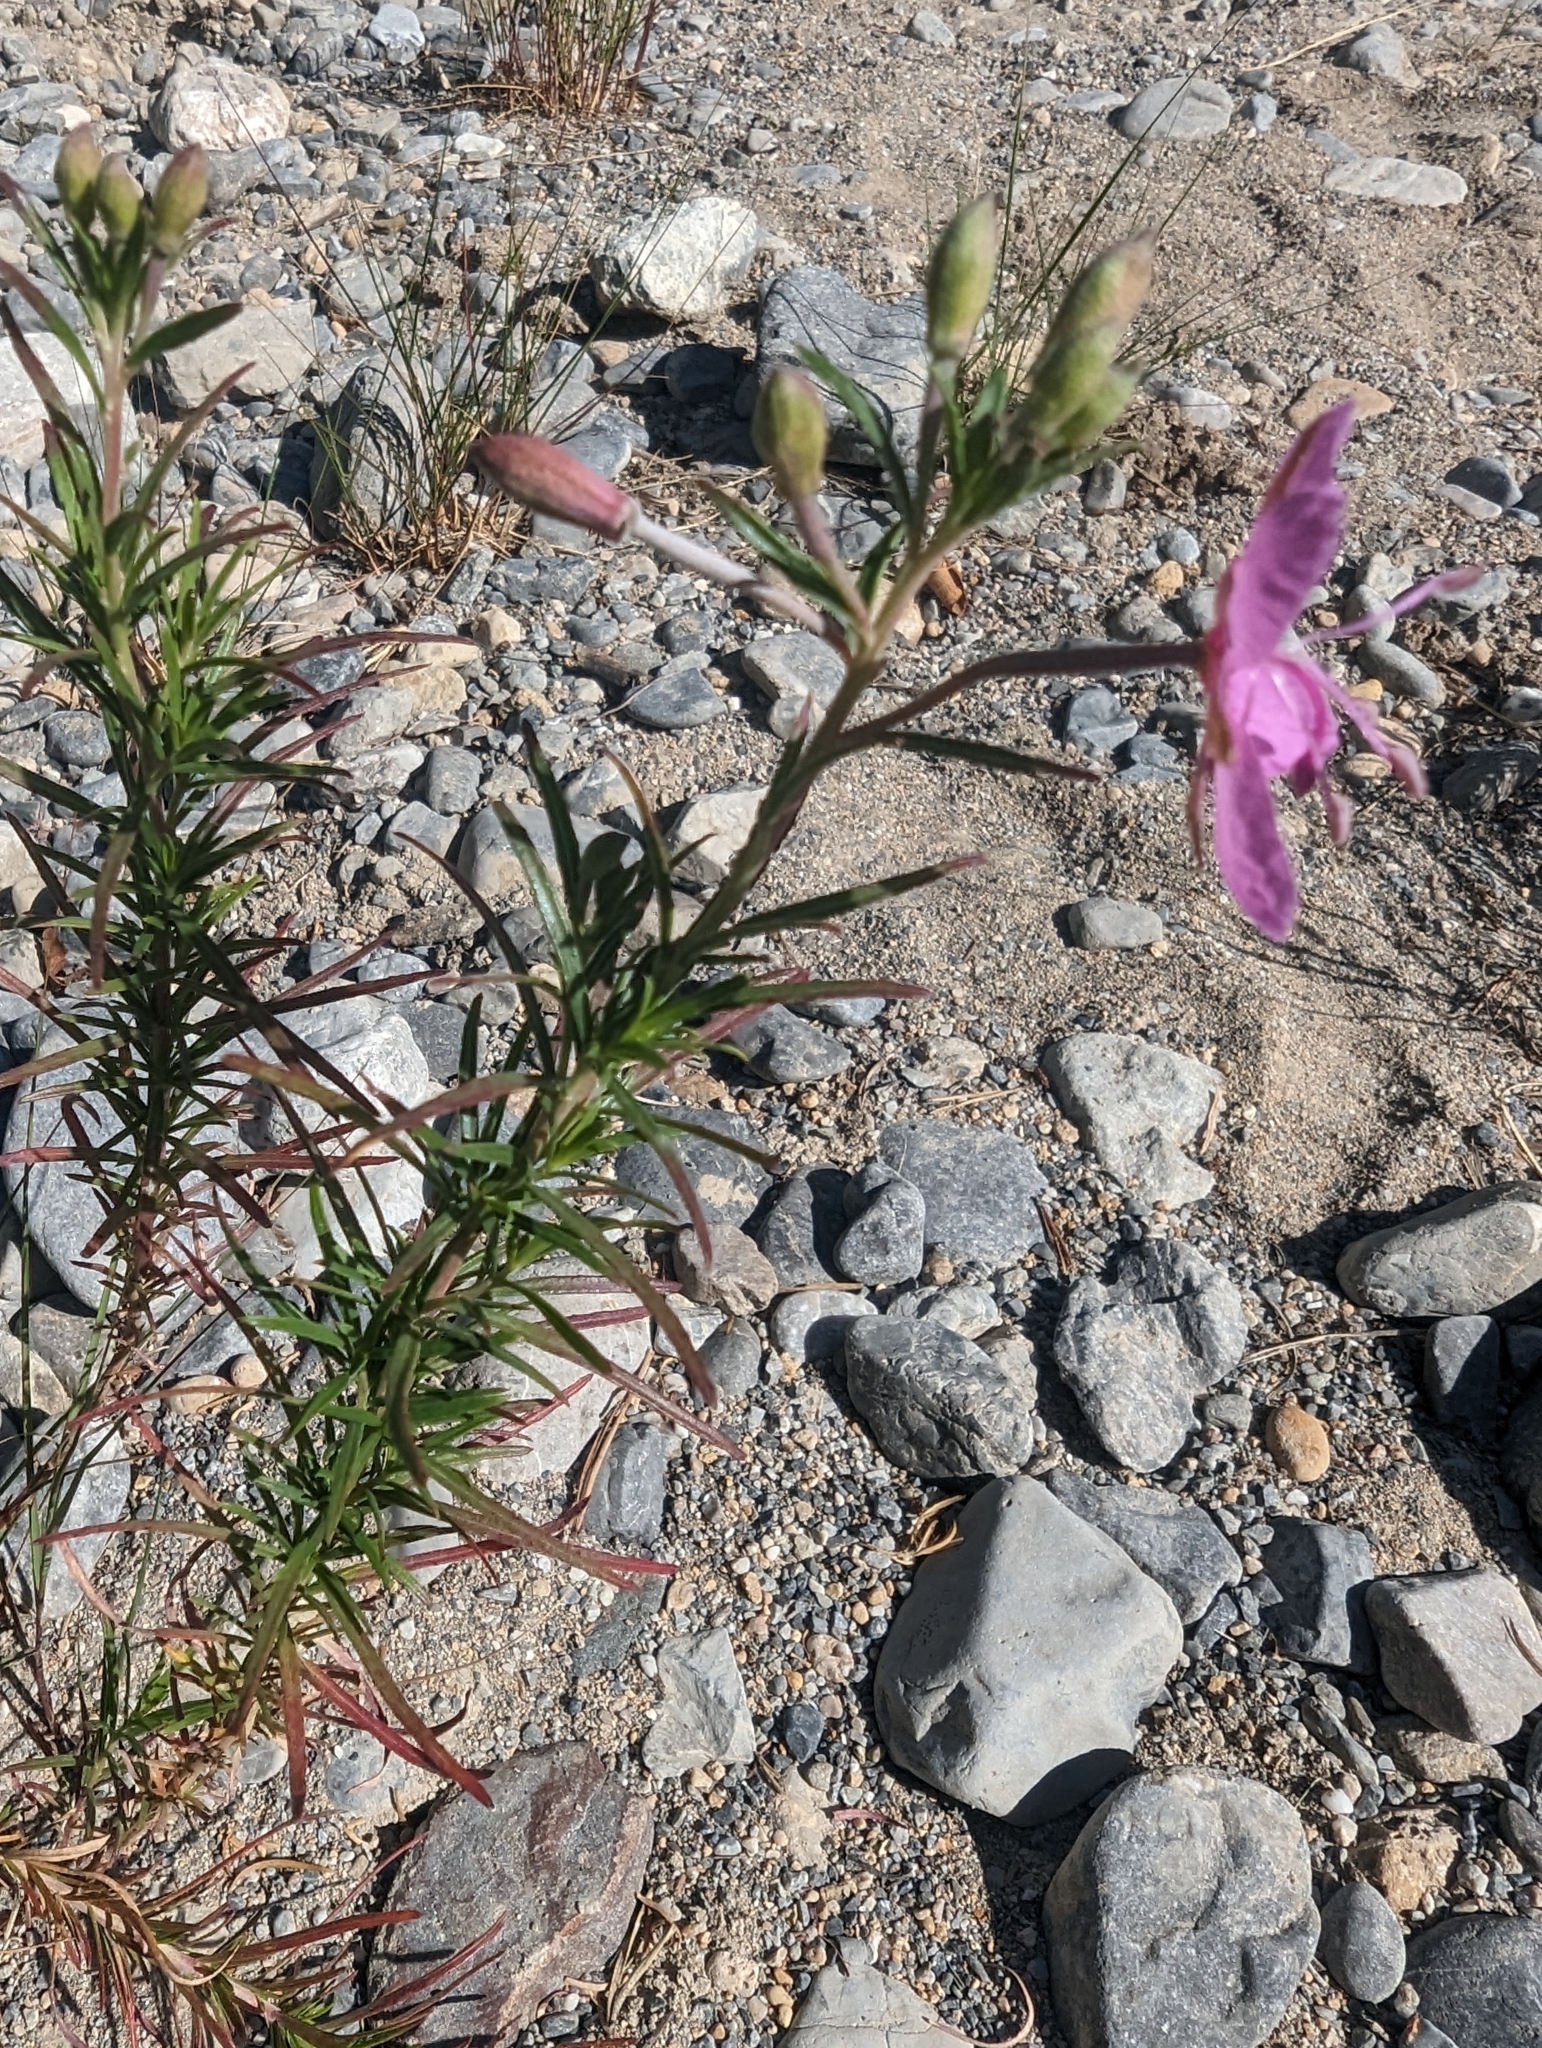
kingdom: Plantae
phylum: Tracheophyta
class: Magnoliopsida
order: Myrtales
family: Onagraceae
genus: Chamaenerion
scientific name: Chamaenerion dodonaei
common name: Rosemary-leaved willowherb
